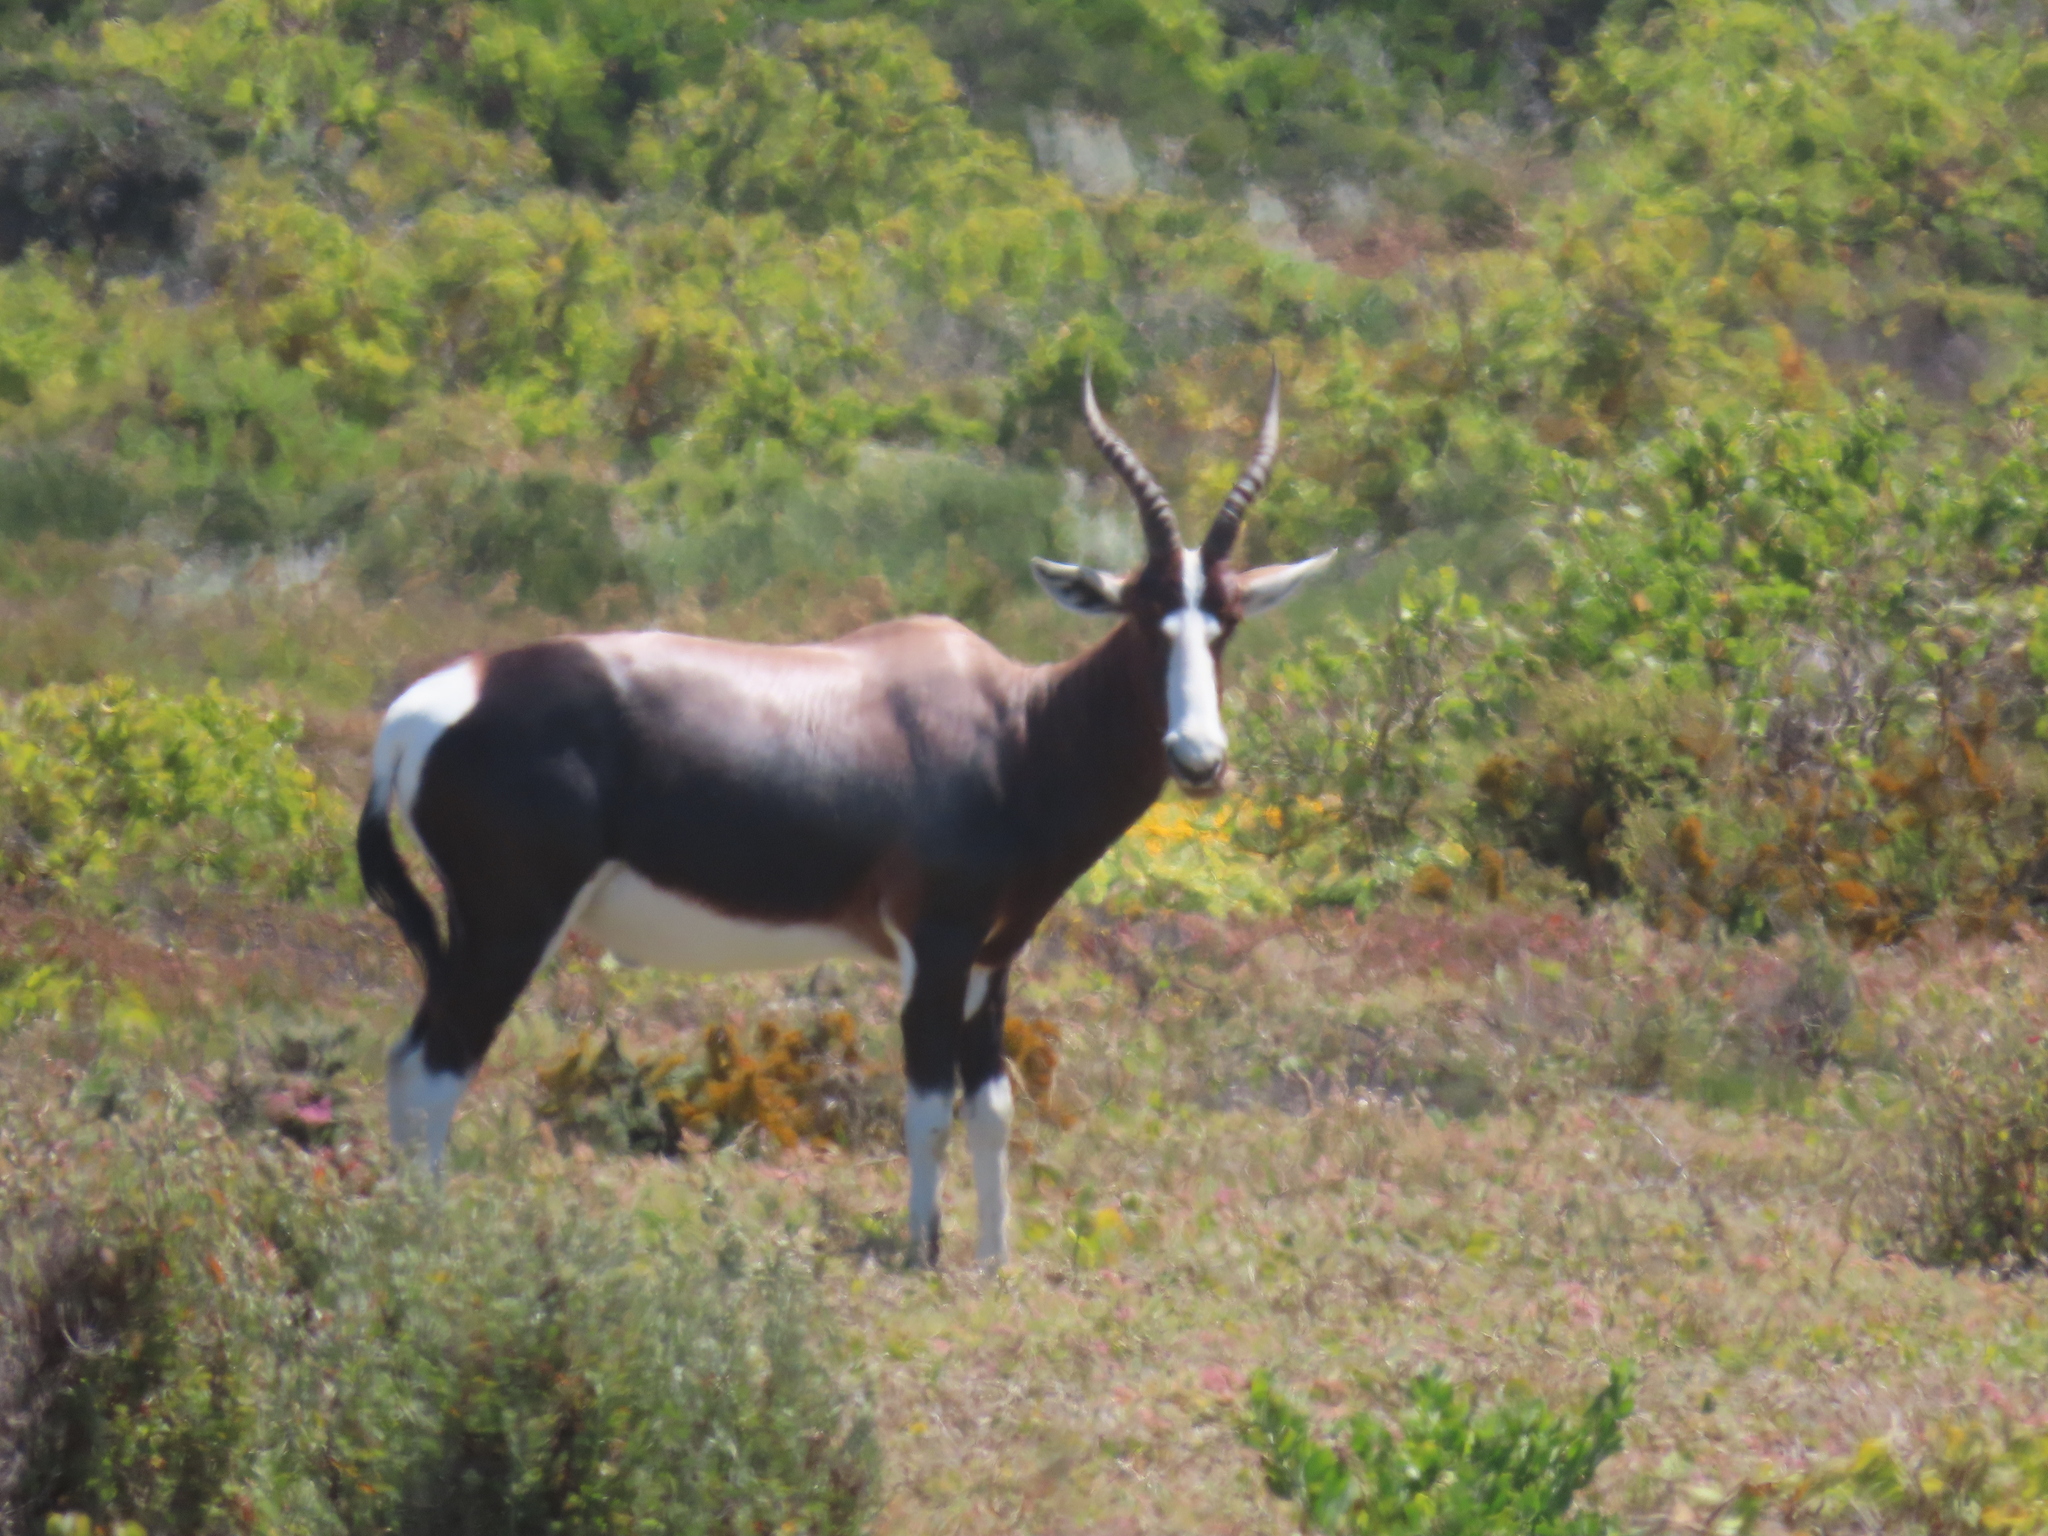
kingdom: Animalia
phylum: Chordata
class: Mammalia
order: Artiodactyla
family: Bovidae
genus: Damaliscus
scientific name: Damaliscus pygargus
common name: Bontebok
